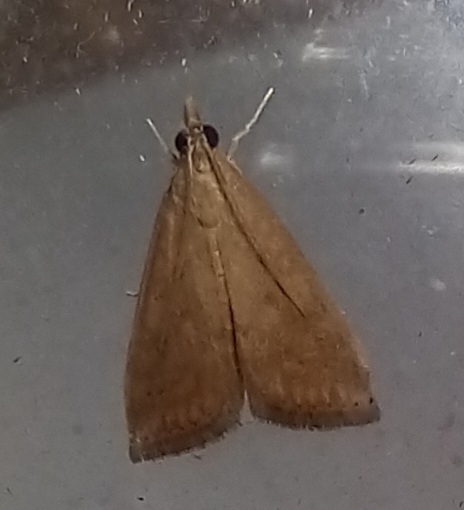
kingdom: Animalia
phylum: Arthropoda
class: Insecta
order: Lepidoptera
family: Crambidae
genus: Udea
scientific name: Udea ferrugalis
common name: Rusty dot
